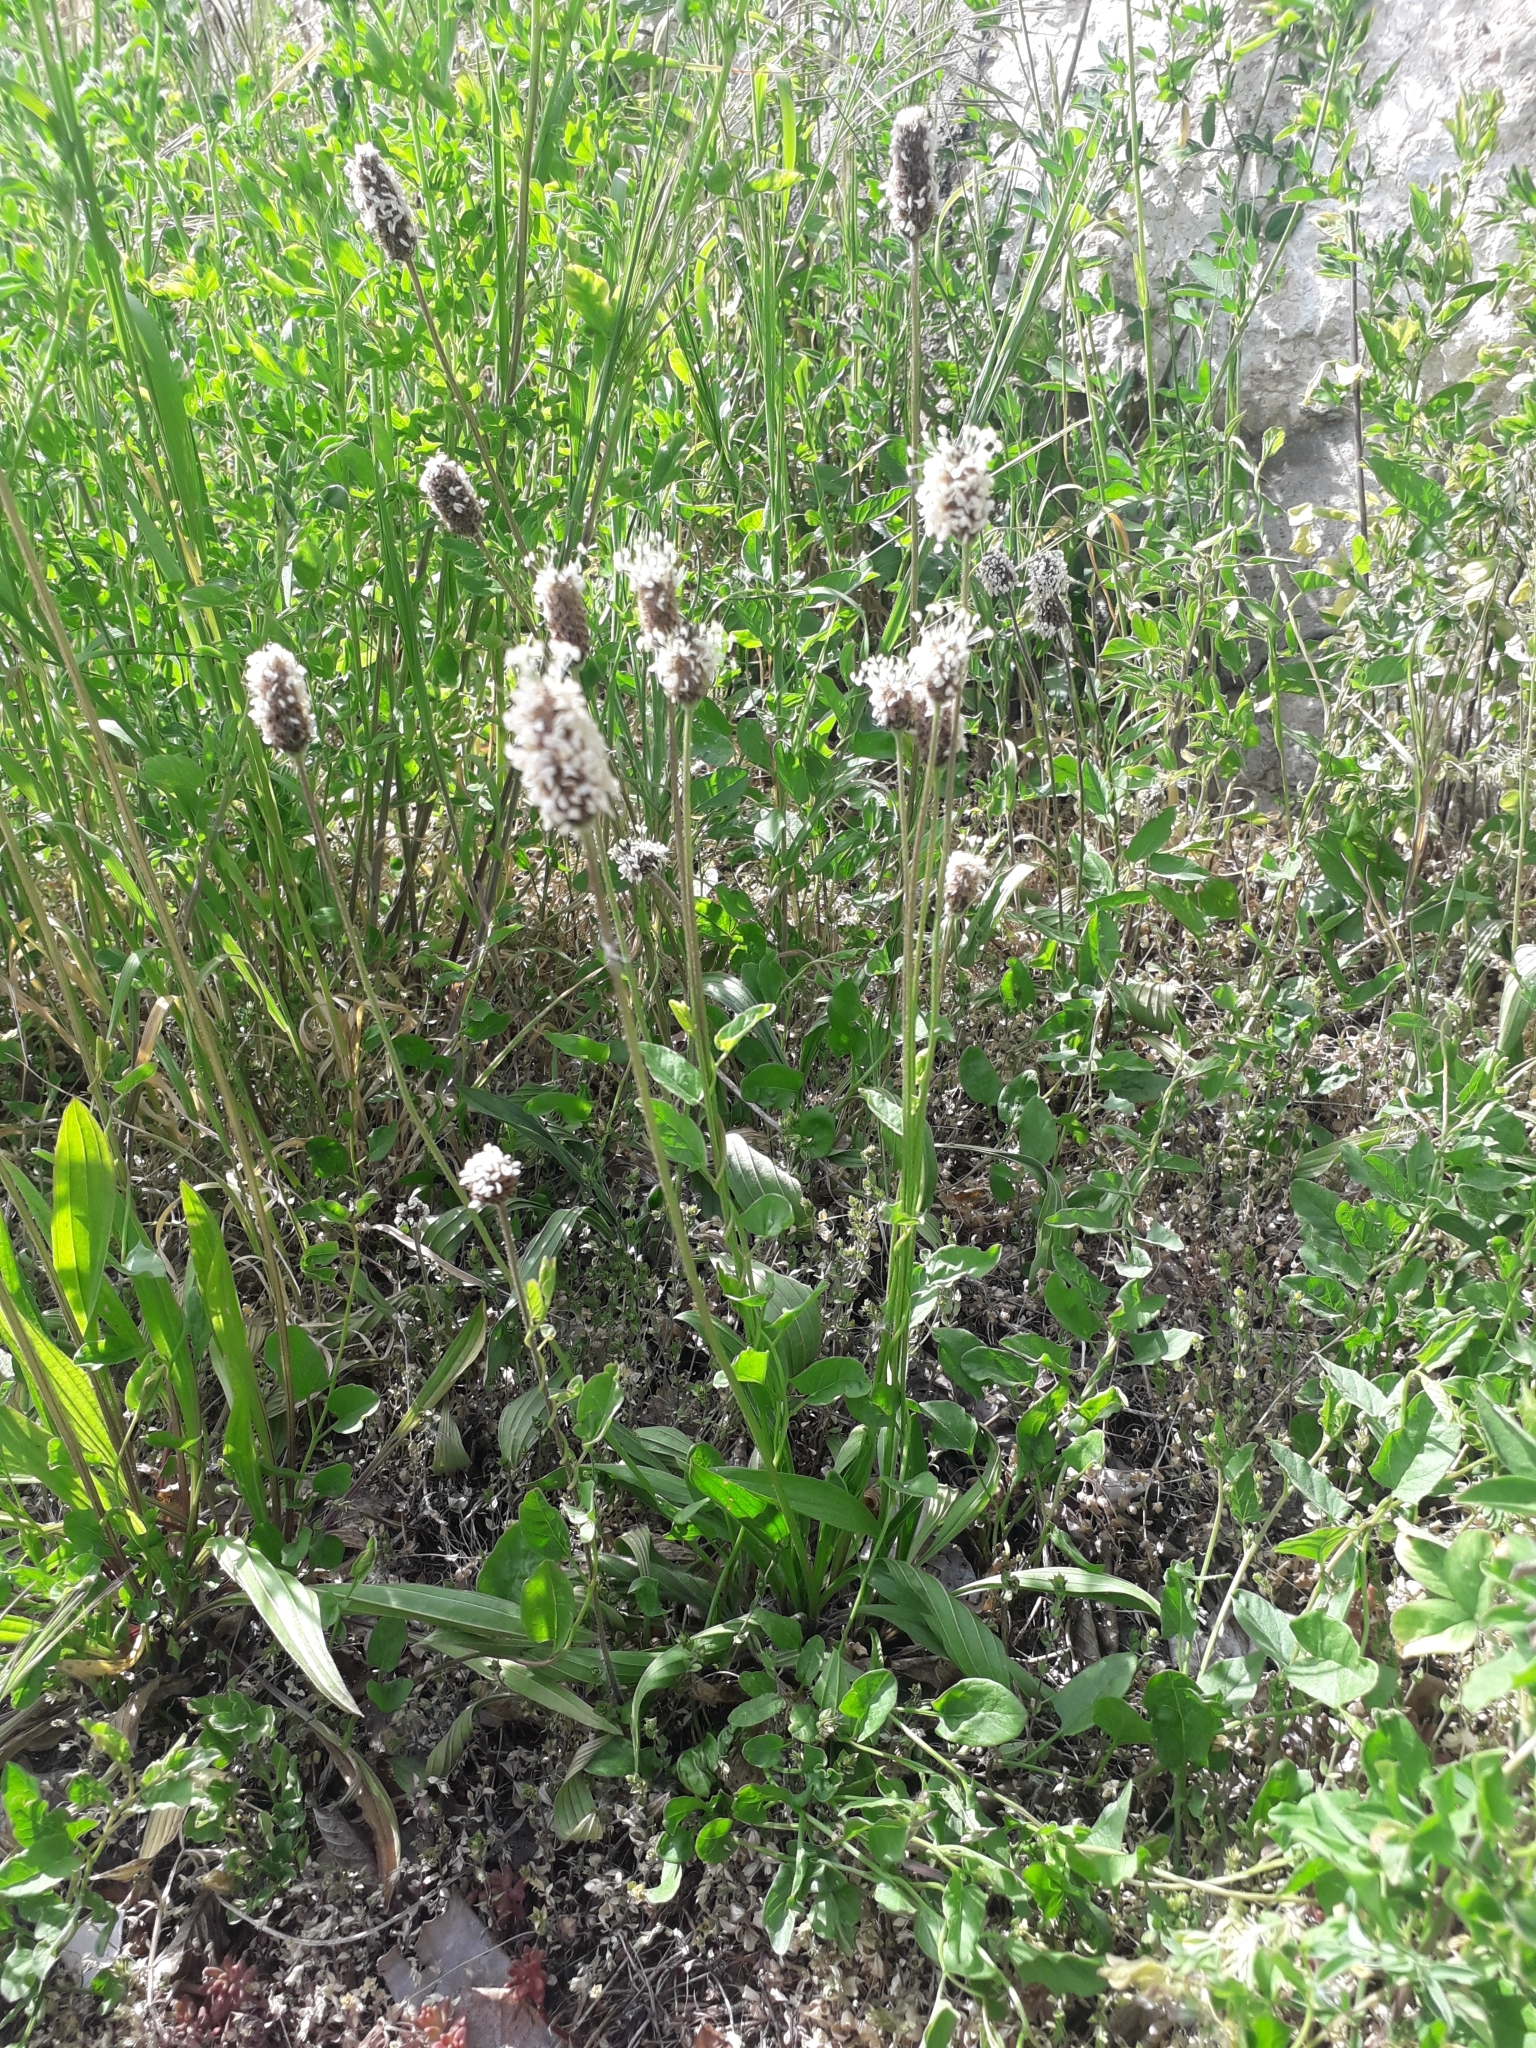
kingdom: Plantae
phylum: Tracheophyta
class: Magnoliopsida
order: Lamiales
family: Plantaginaceae
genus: Plantago
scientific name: Plantago lanceolata
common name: Ribwort plantain
